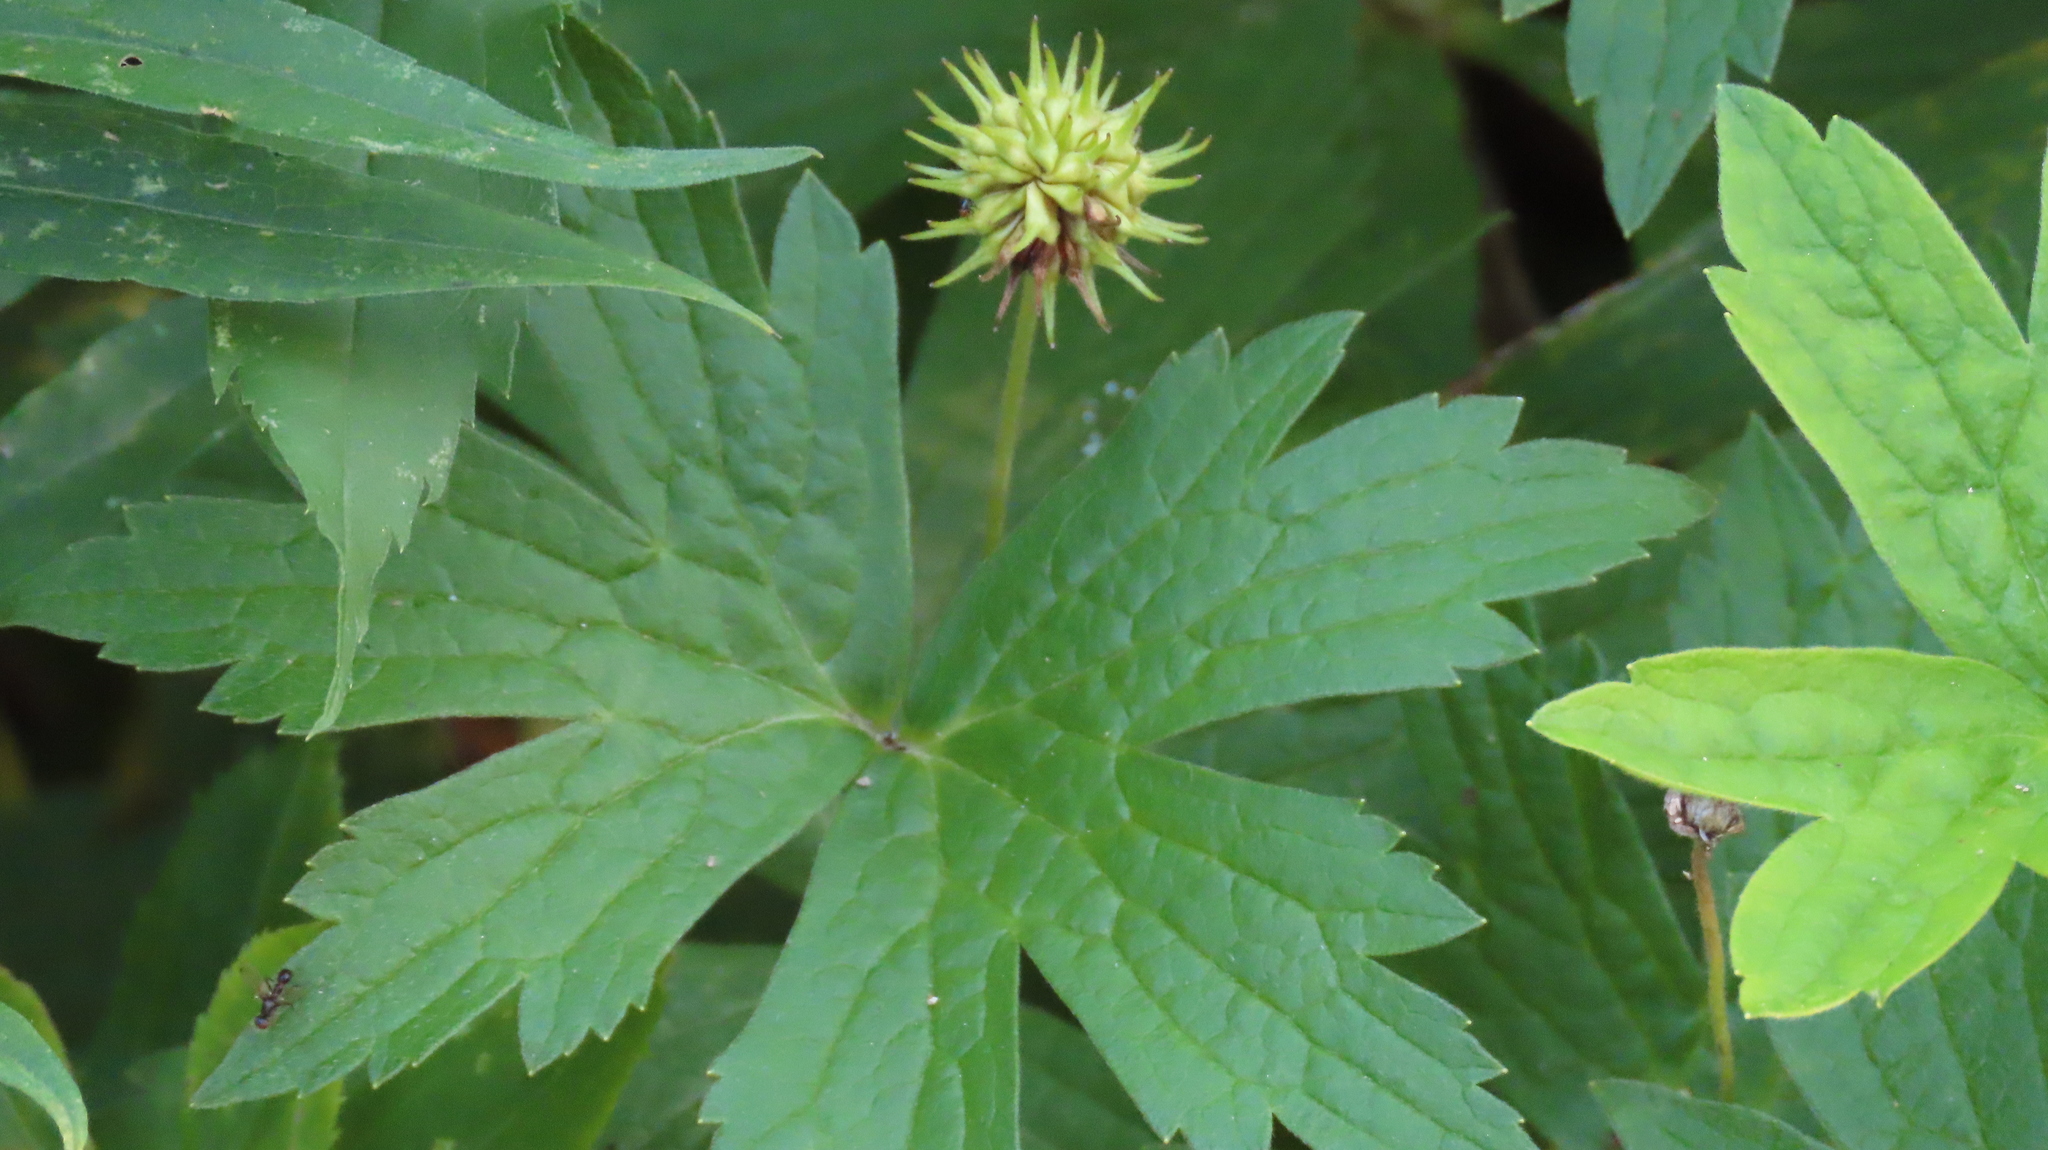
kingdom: Plantae
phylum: Tracheophyta
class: Magnoliopsida
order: Ranunculales
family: Ranunculaceae
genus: Anemonastrum
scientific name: Anemonastrum canadense
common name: Canada anemone
